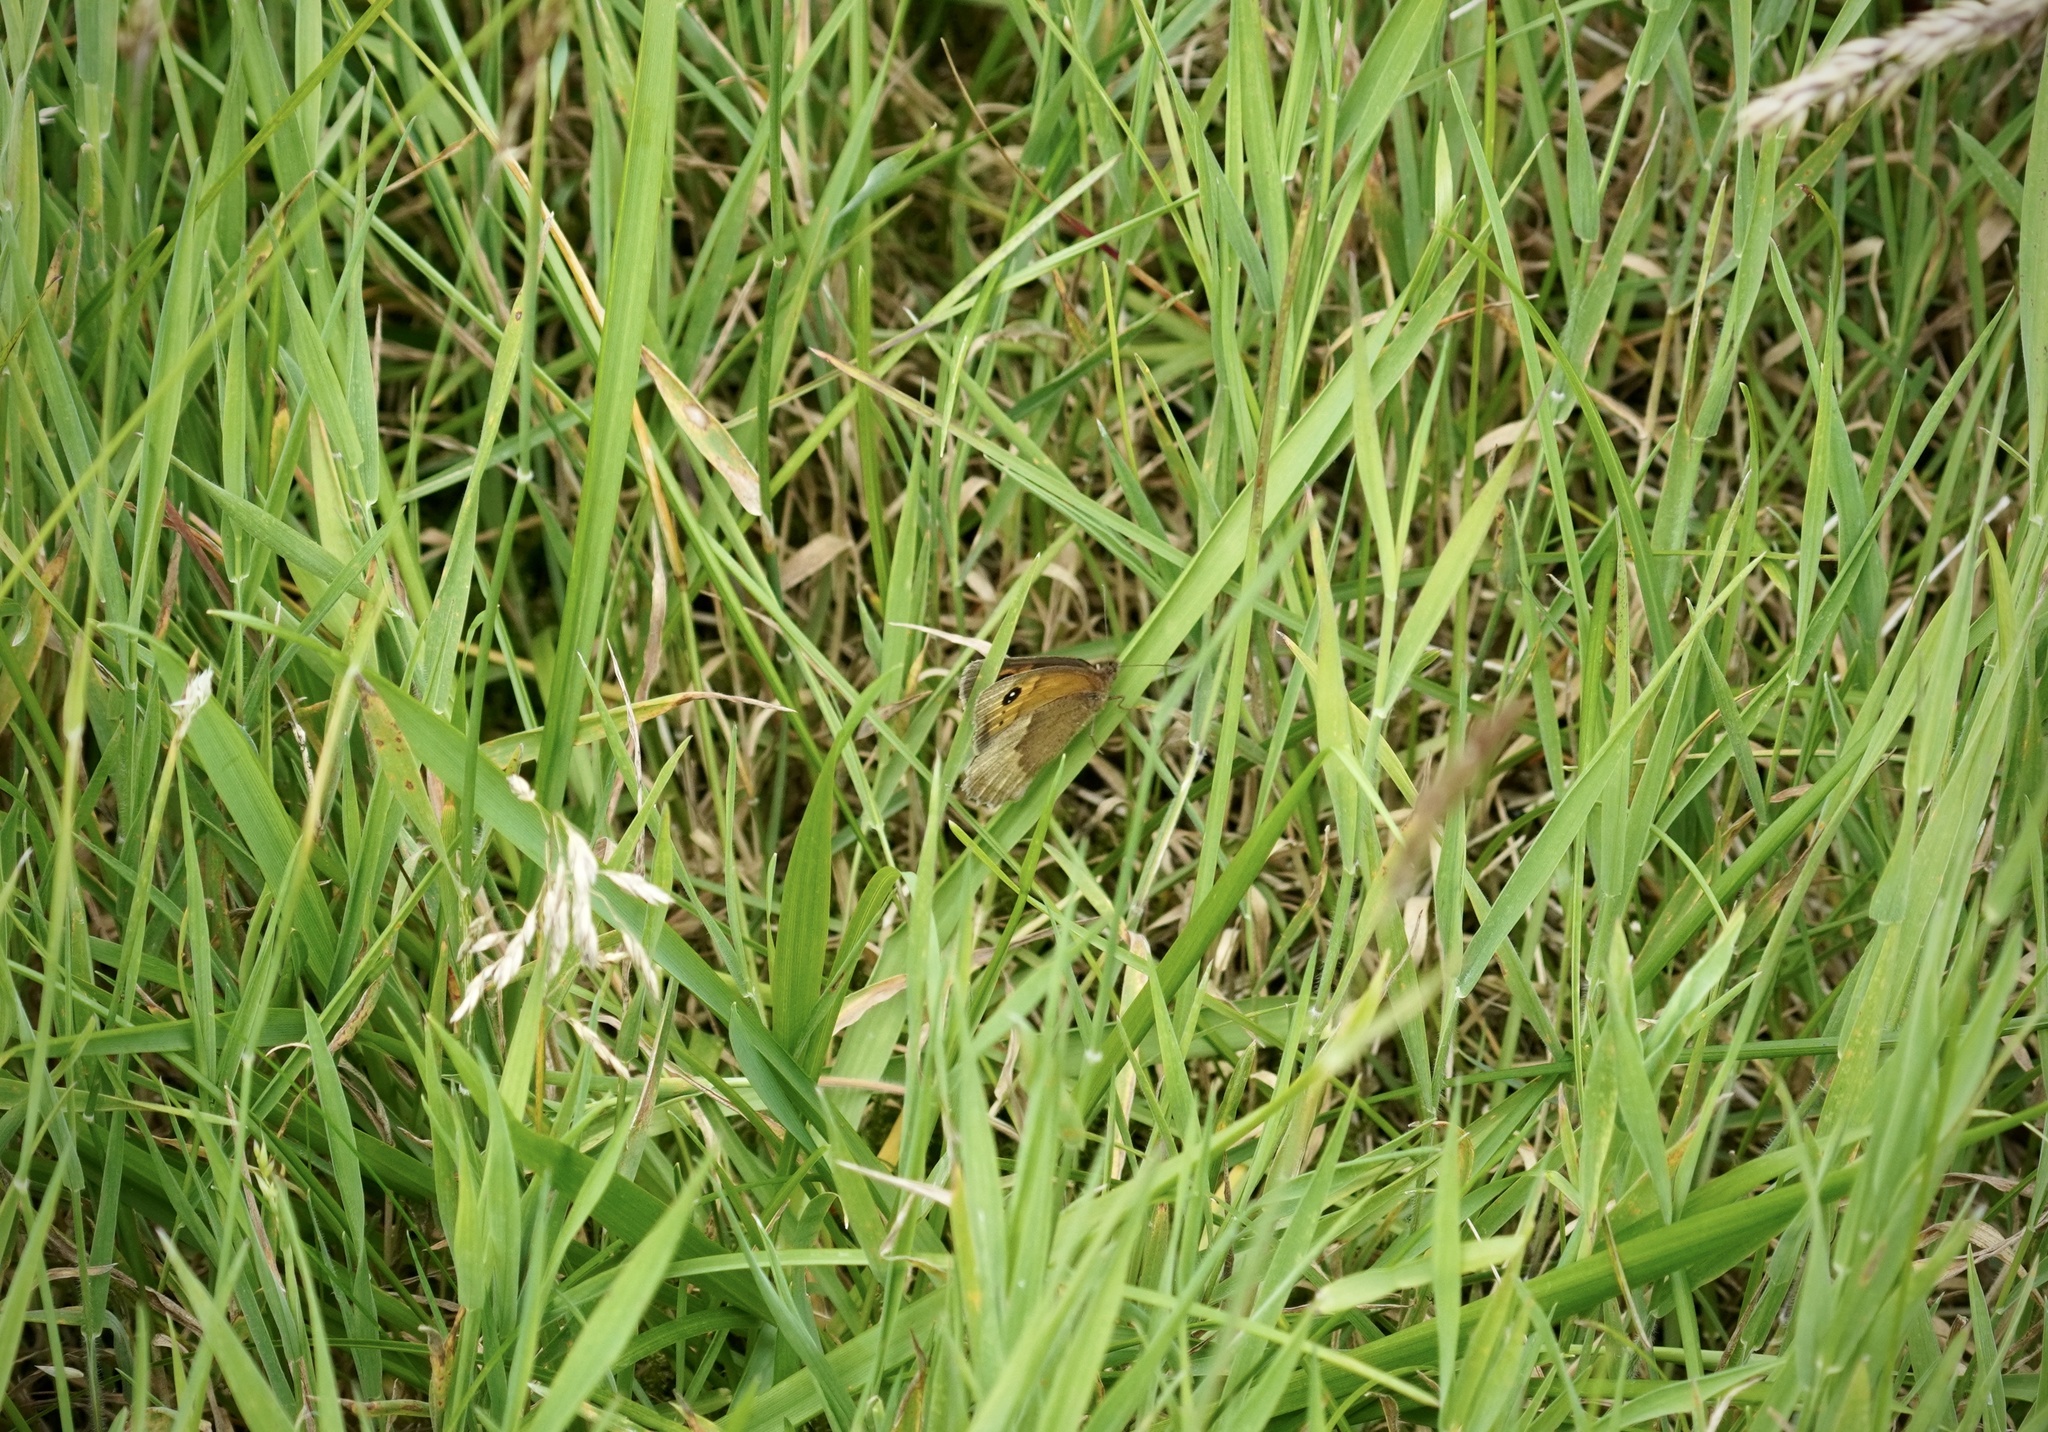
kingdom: Animalia
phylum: Arthropoda
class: Insecta
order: Lepidoptera
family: Nymphalidae
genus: Maniola
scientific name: Maniola jurtina
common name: Meadow brown
